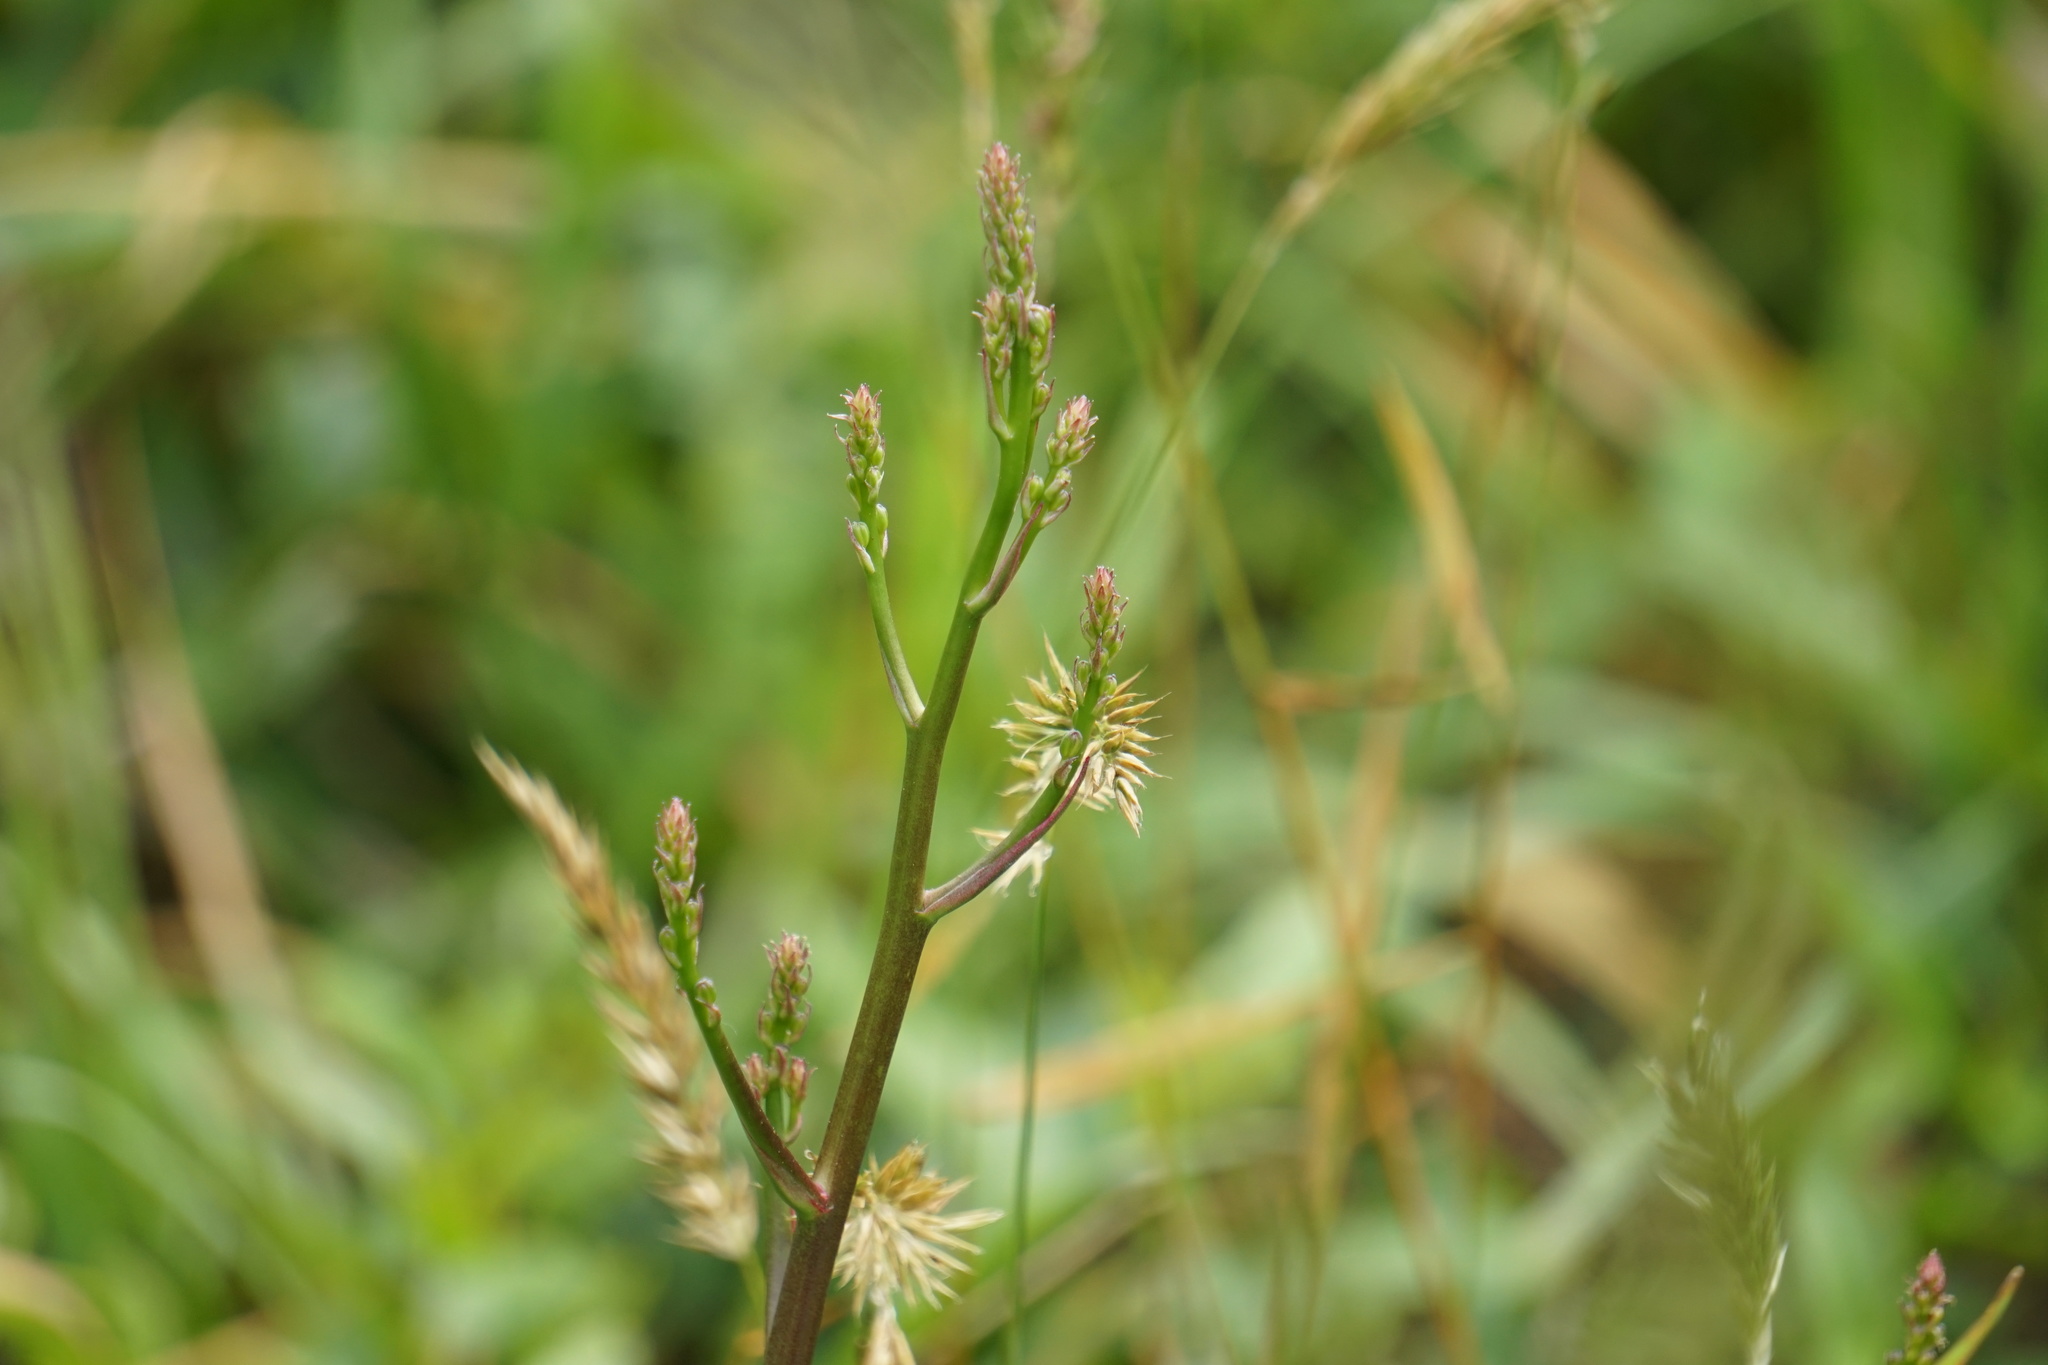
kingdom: Plantae
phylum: Tracheophyta
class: Liliopsida
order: Asparagales
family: Asparagaceae
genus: Chlorogalum
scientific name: Chlorogalum pomeridianum
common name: Amole
